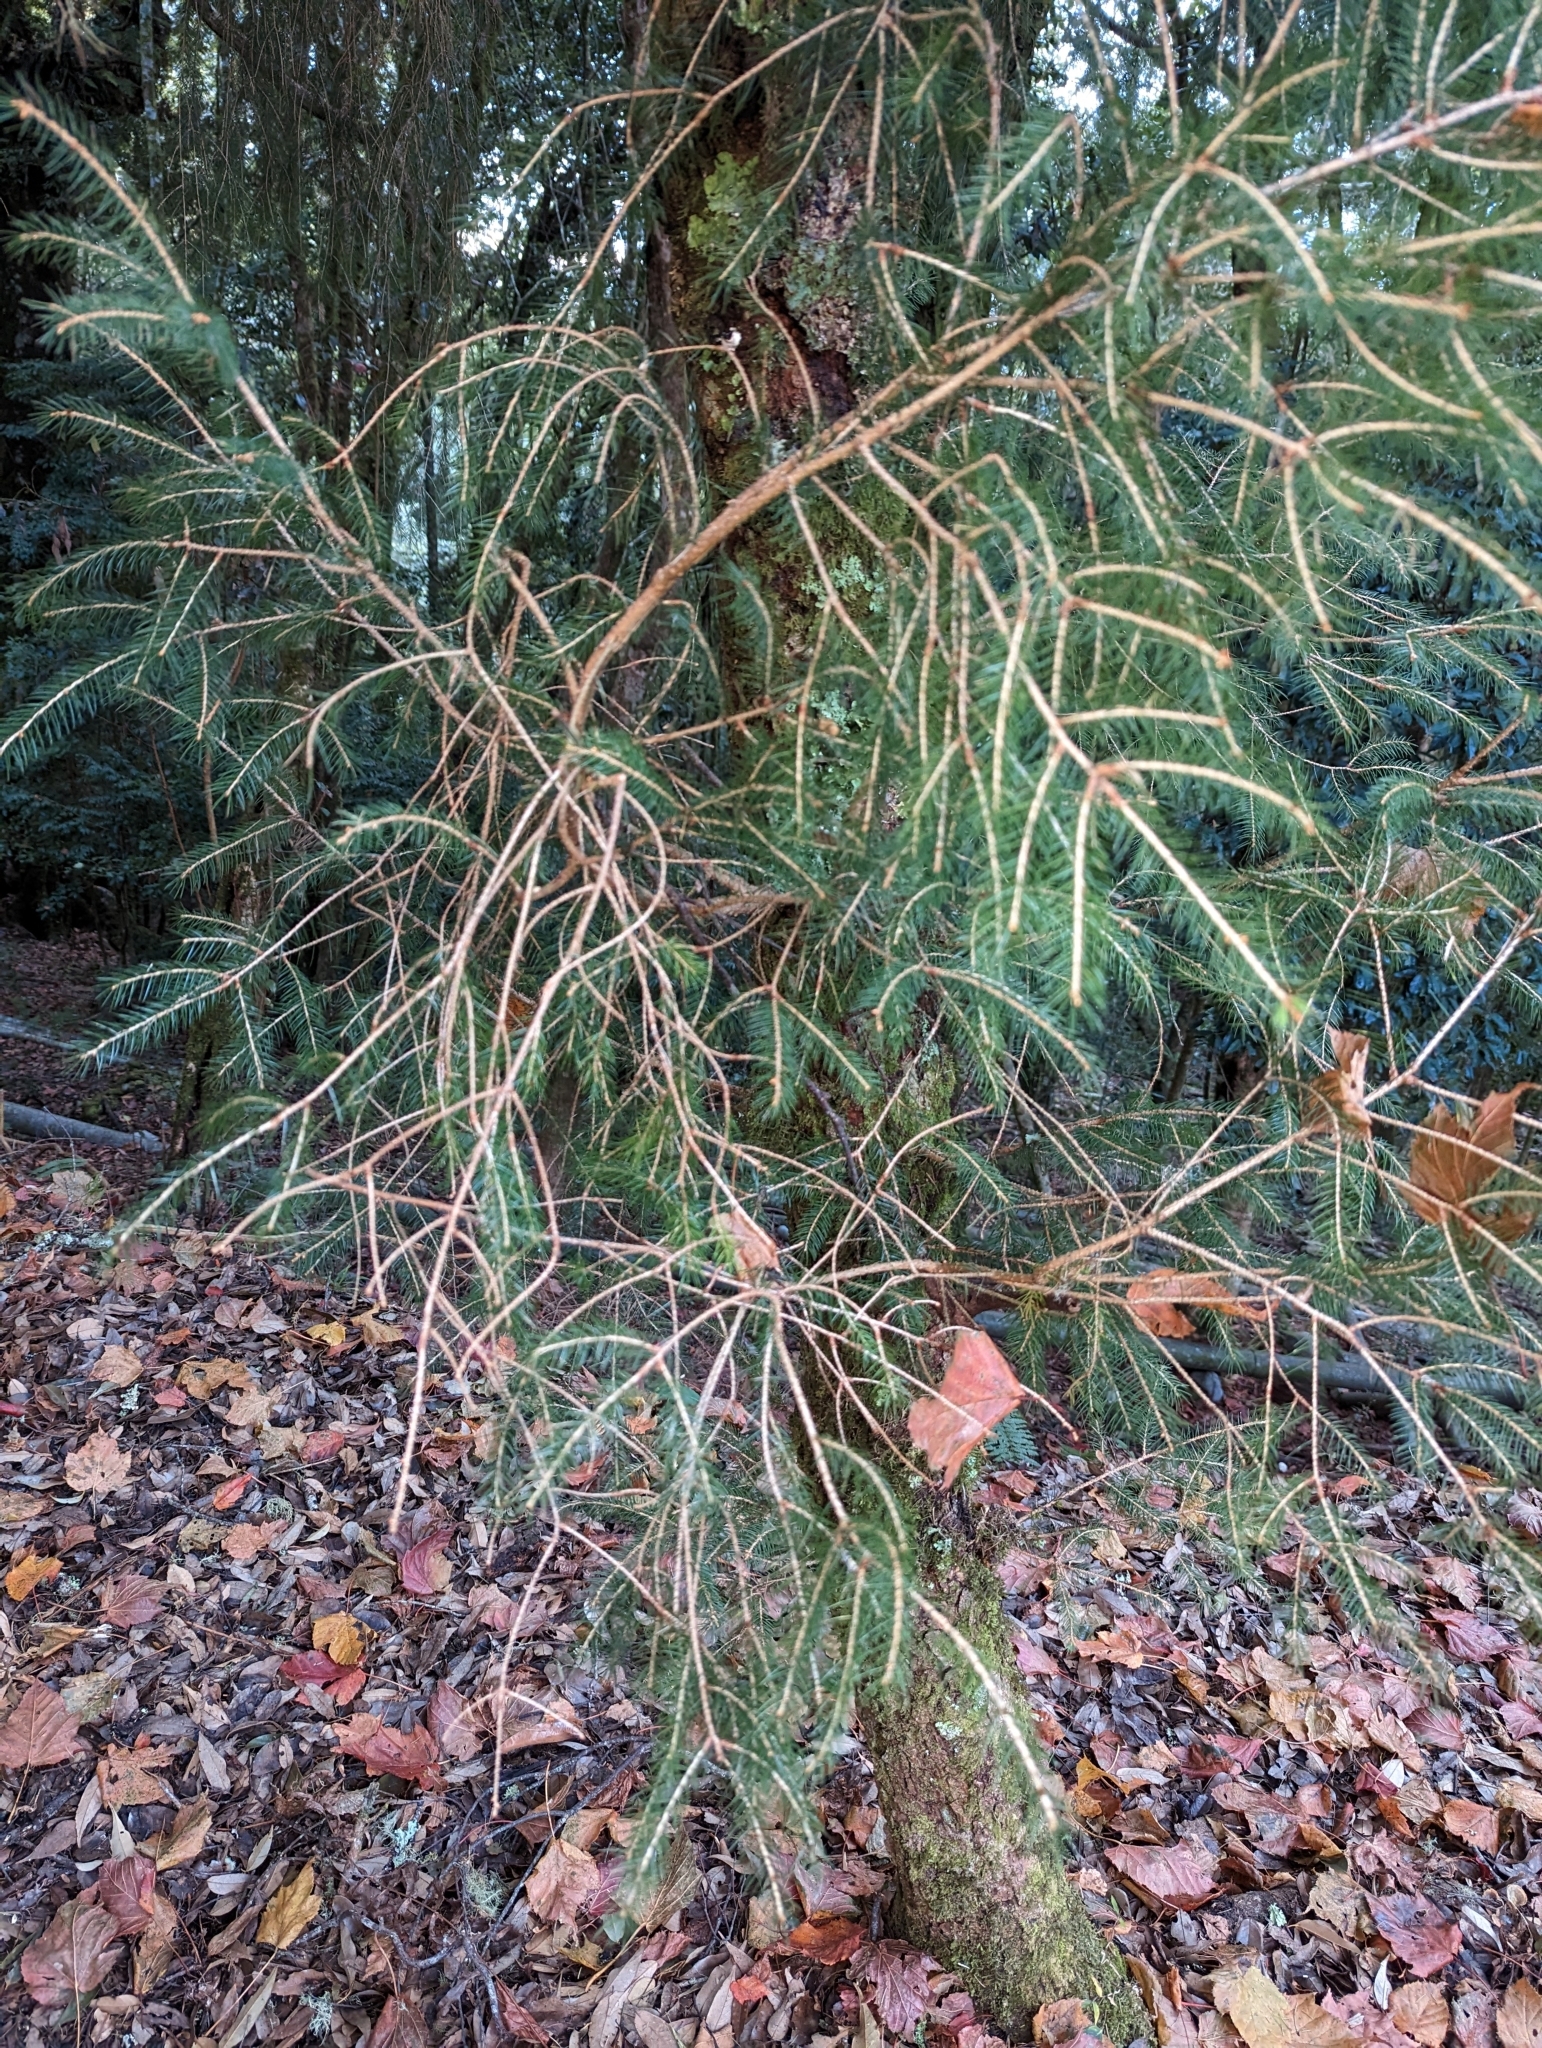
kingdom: Plantae
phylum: Tracheophyta
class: Pinopsida
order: Pinales
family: Pinaceae
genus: Picea
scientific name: Picea morrisonicola
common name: Mount morrison spruce
